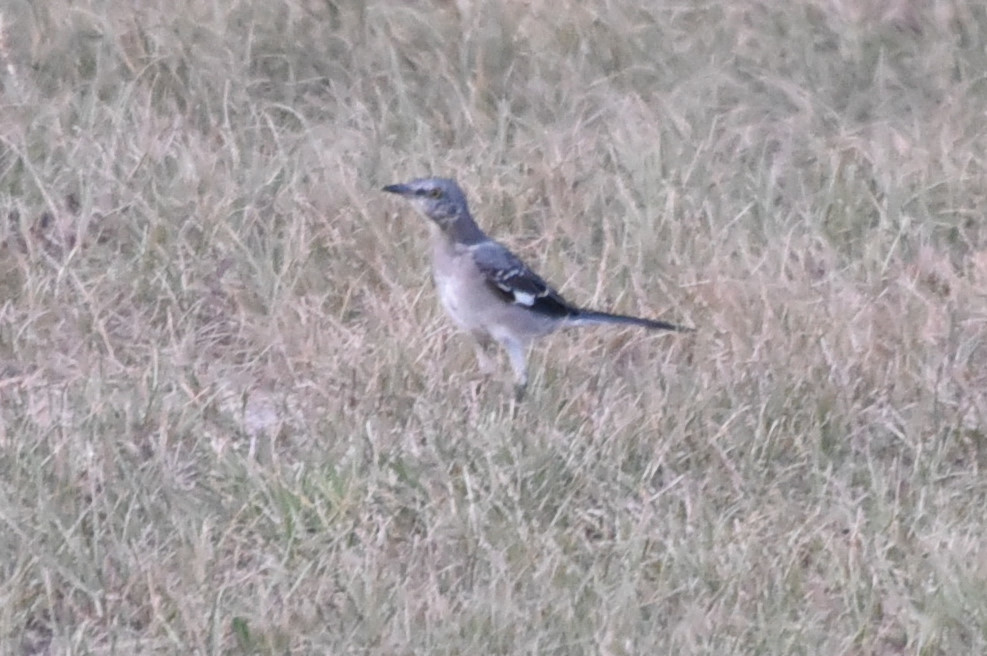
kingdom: Animalia
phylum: Chordata
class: Aves
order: Passeriformes
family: Mimidae
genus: Mimus
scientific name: Mimus polyglottos
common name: Northern mockingbird
